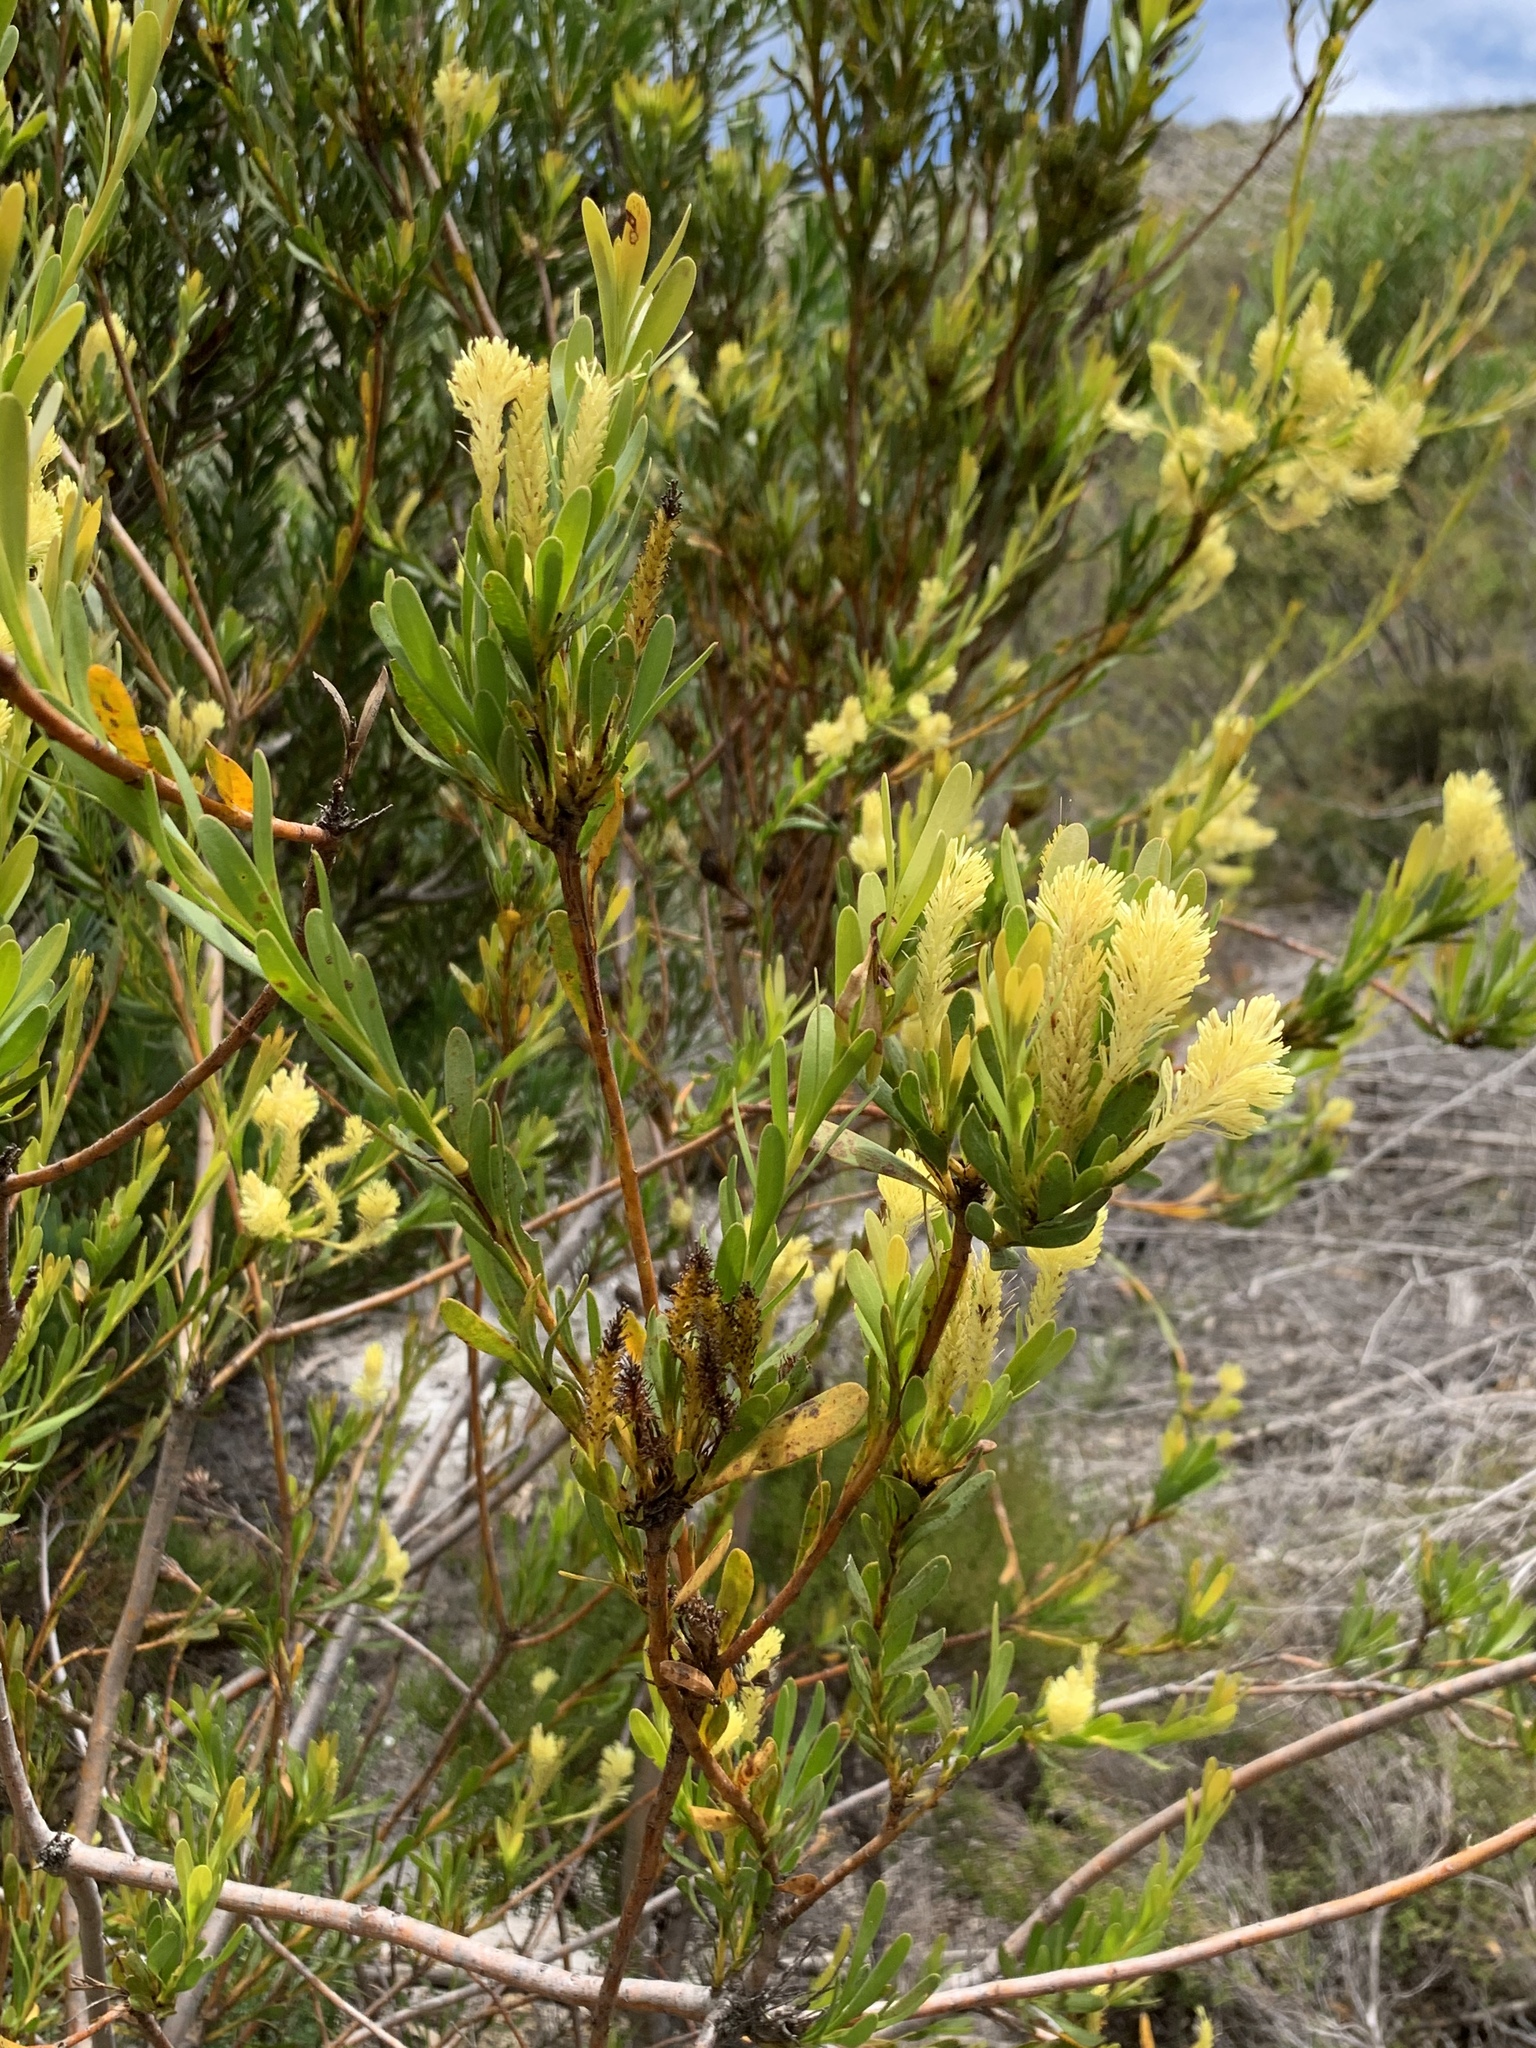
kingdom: Plantae
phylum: Tracheophyta
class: Magnoliopsida
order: Proteales
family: Proteaceae
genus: Aulax
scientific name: Aulax umbellata
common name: Broad-leaf featherbush
